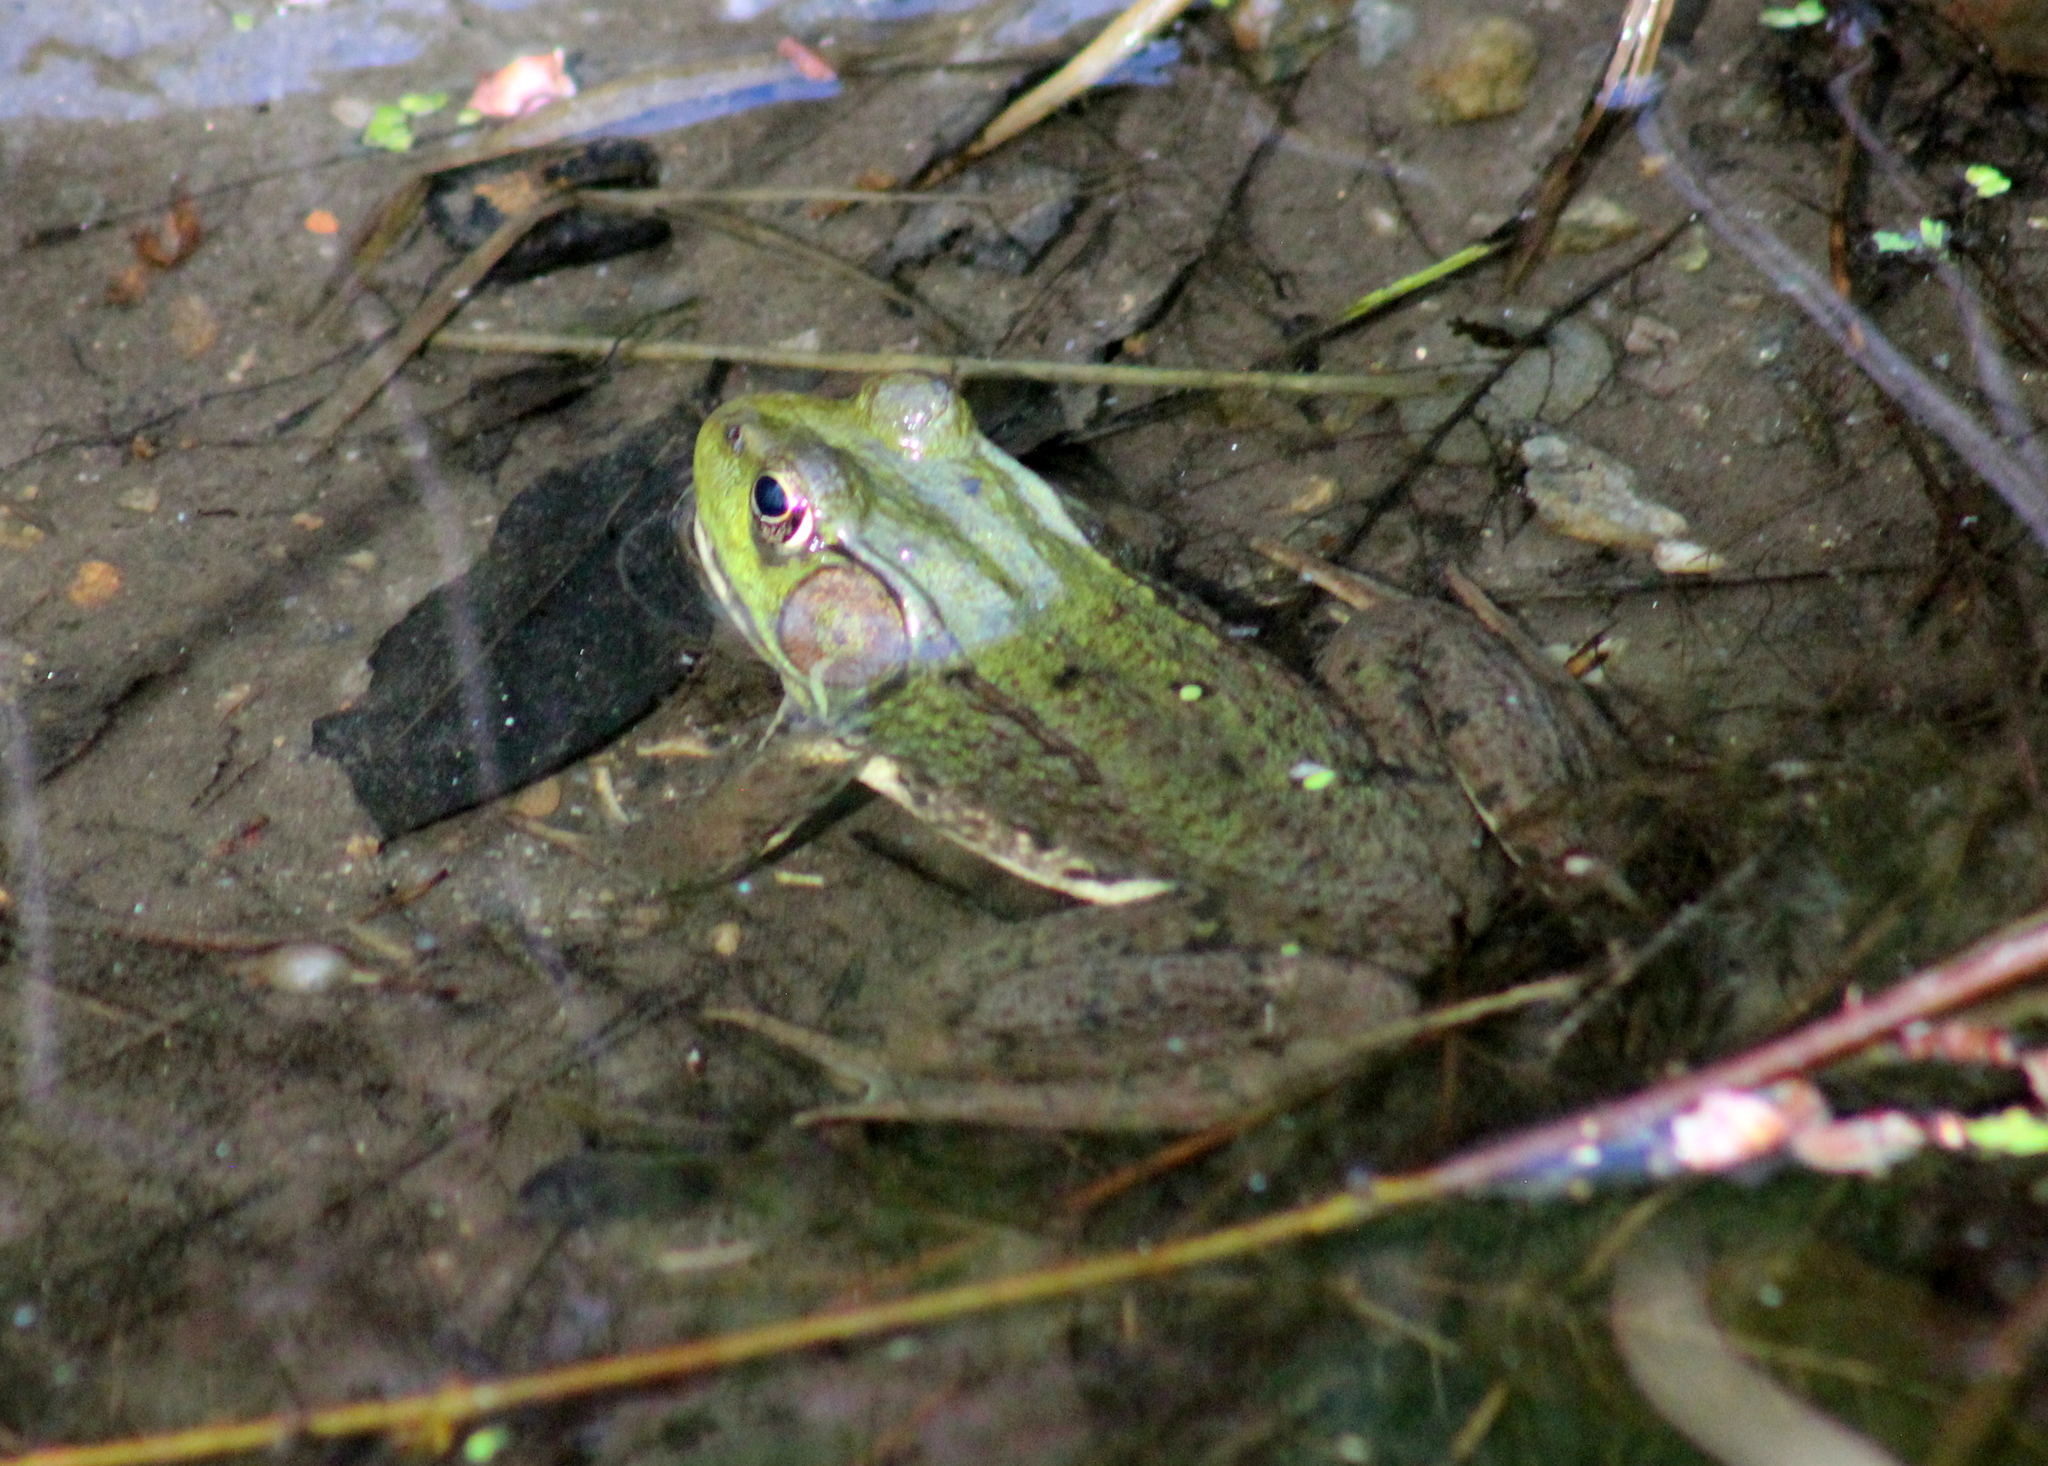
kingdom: Animalia
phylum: Chordata
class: Amphibia
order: Anura
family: Ranidae
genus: Lithobates
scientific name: Lithobates clamitans
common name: Green frog
